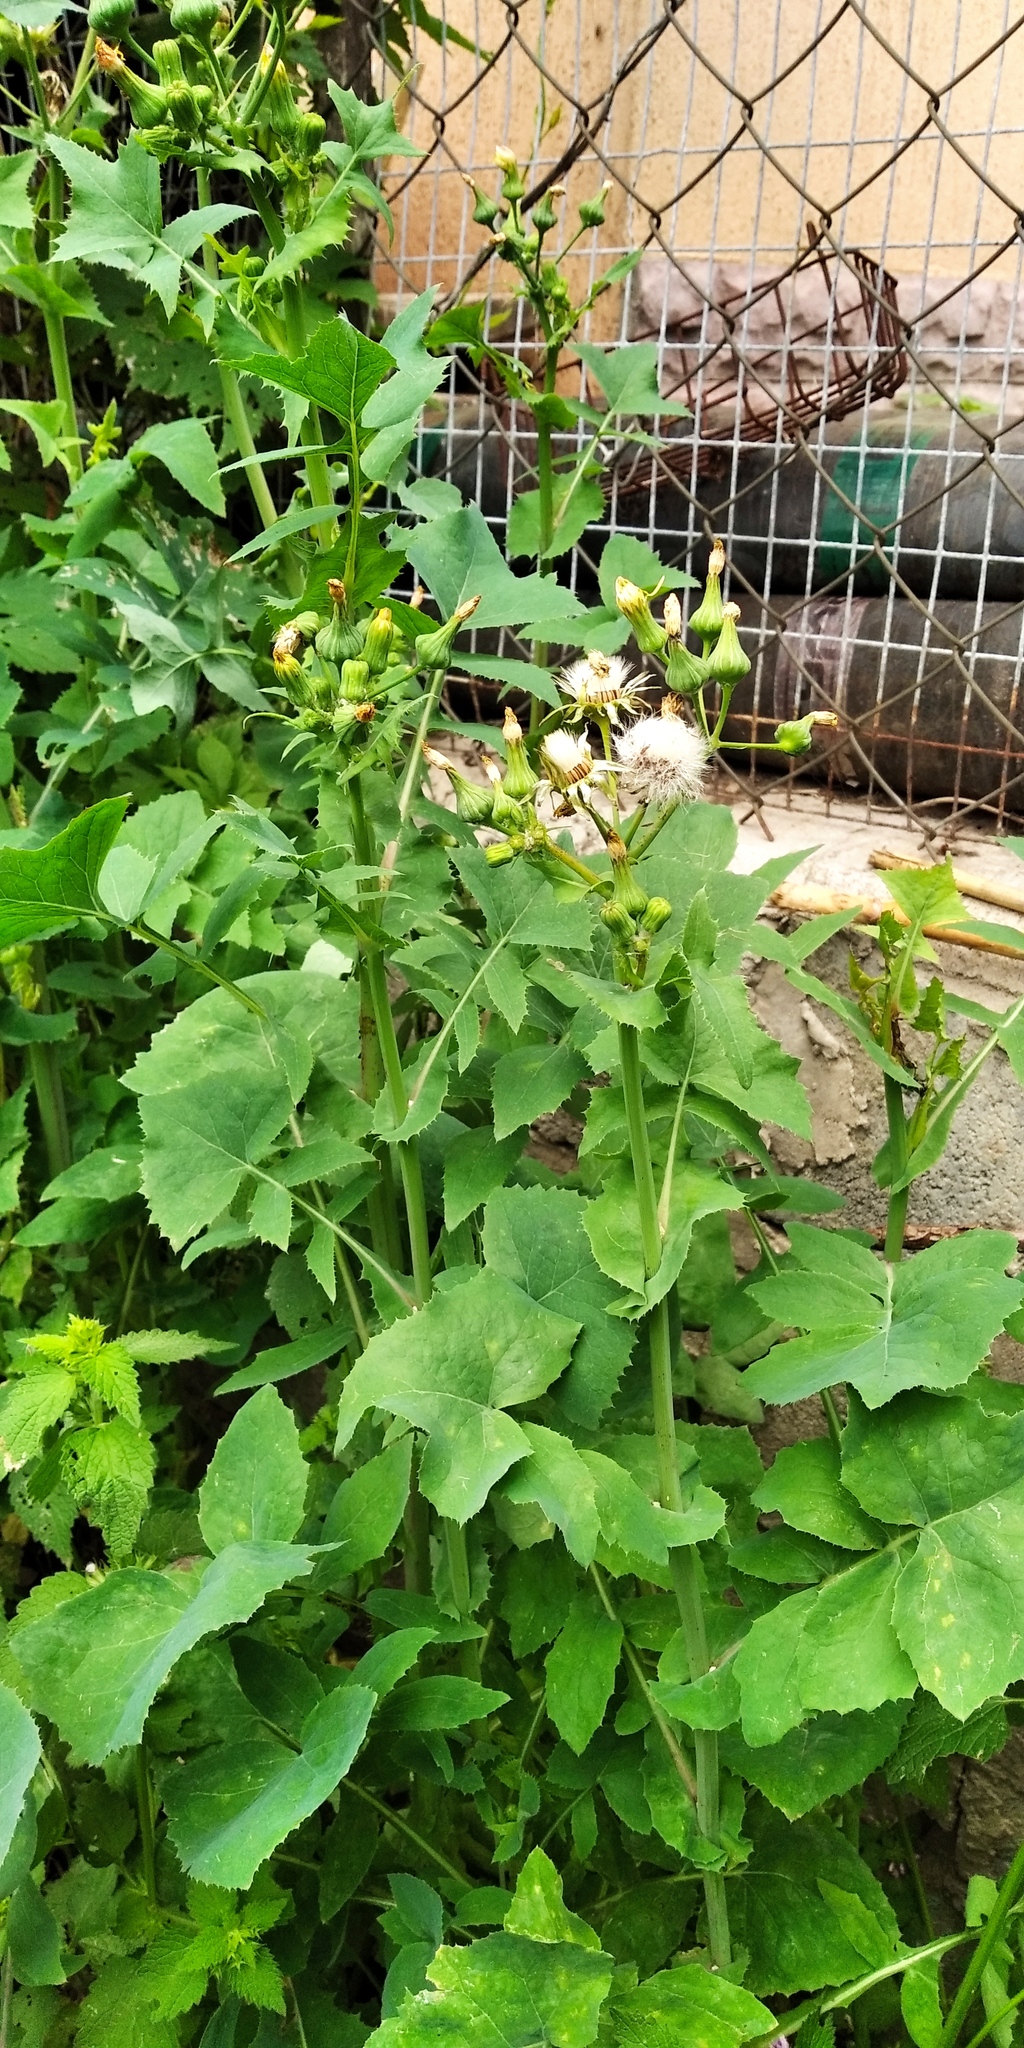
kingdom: Plantae
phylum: Tracheophyta
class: Magnoliopsida
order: Asterales
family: Asteraceae
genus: Sonchus
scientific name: Sonchus oleraceus
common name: Common sowthistle
